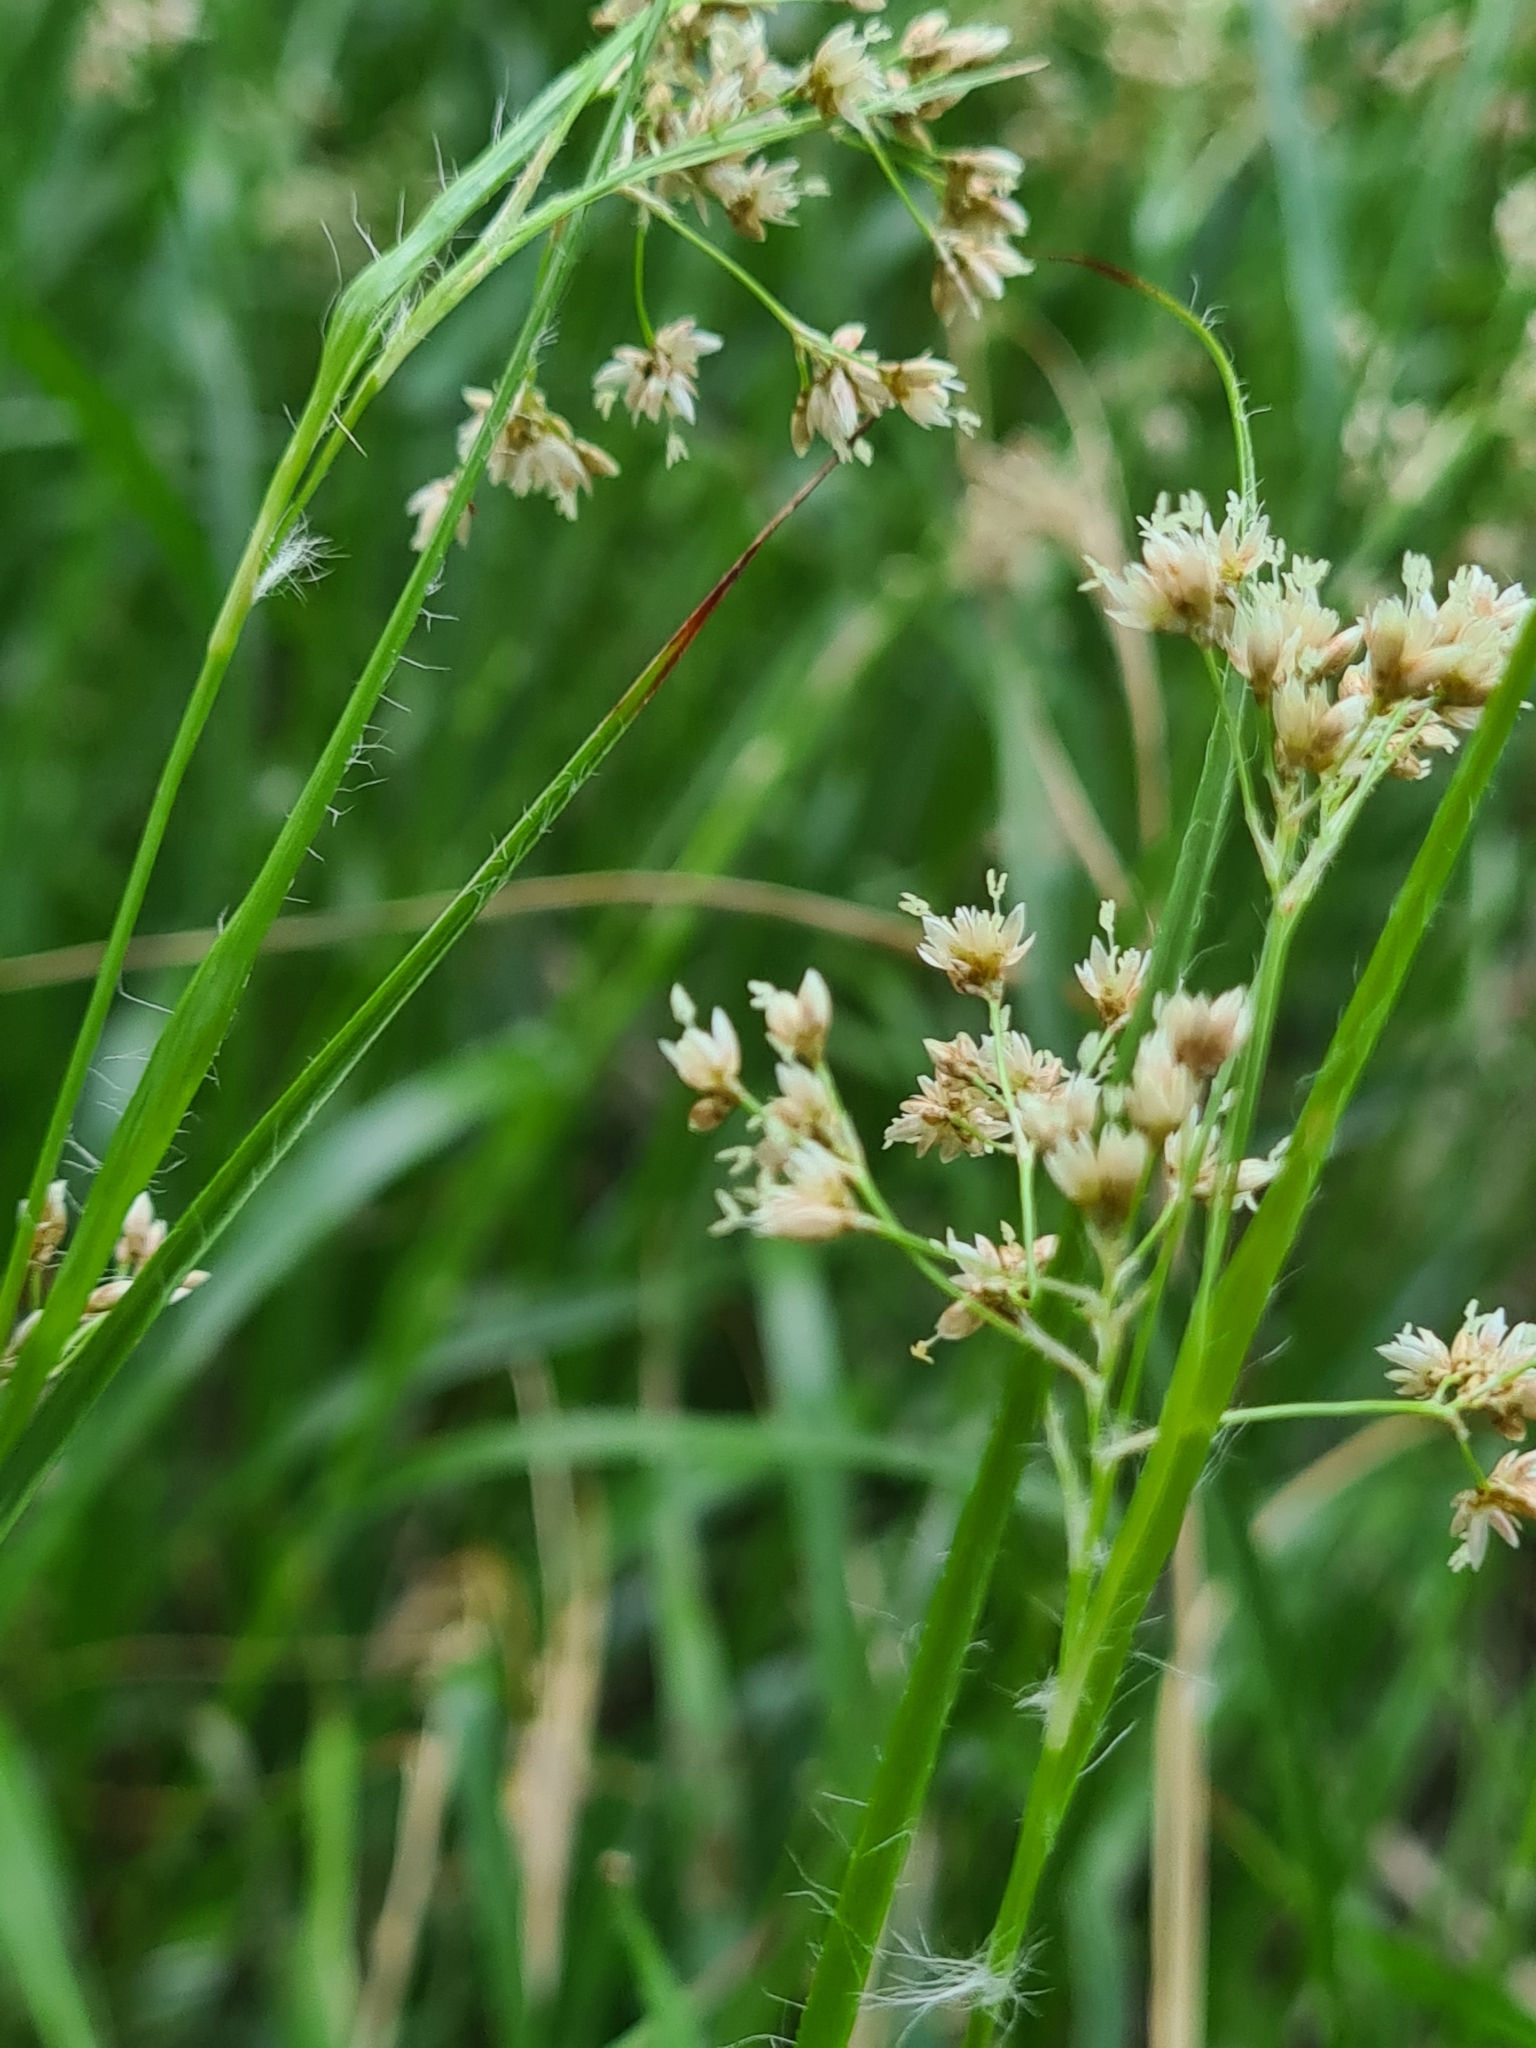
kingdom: Plantae
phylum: Tracheophyta
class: Liliopsida
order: Poales
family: Juncaceae
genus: Luzula
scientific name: Luzula luzuloides
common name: White wood-rush
